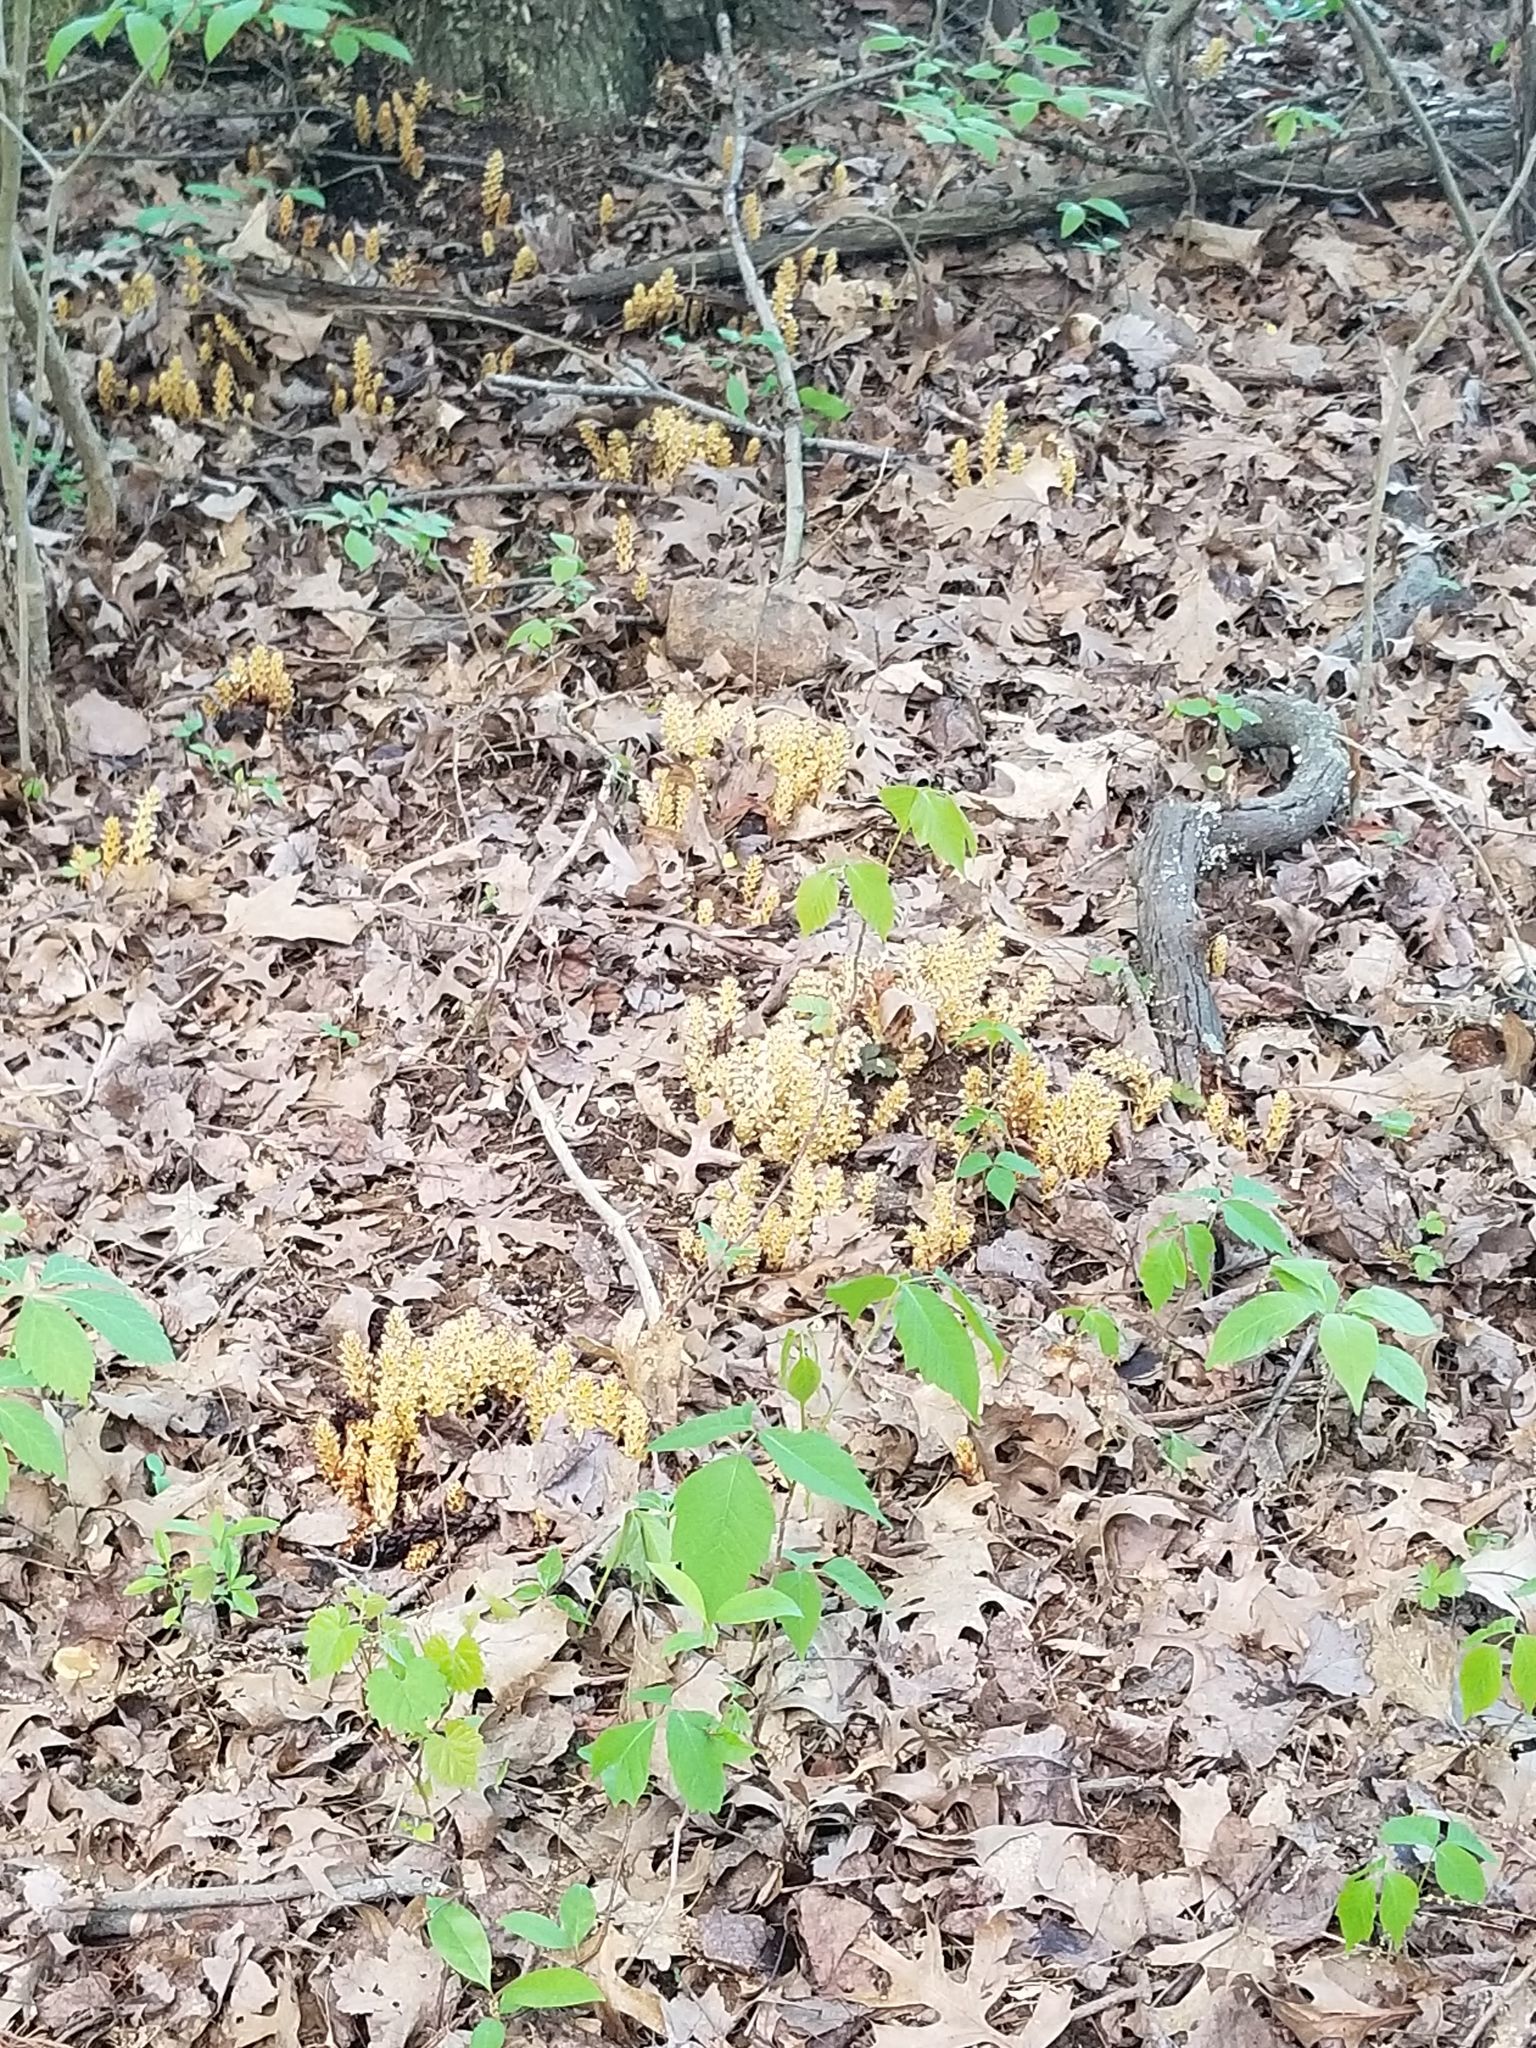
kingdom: Plantae
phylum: Tracheophyta
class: Magnoliopsida
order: Lamiales
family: Orobanchaceae
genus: Conopholis
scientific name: Conopholis americana
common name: American cancer-root
